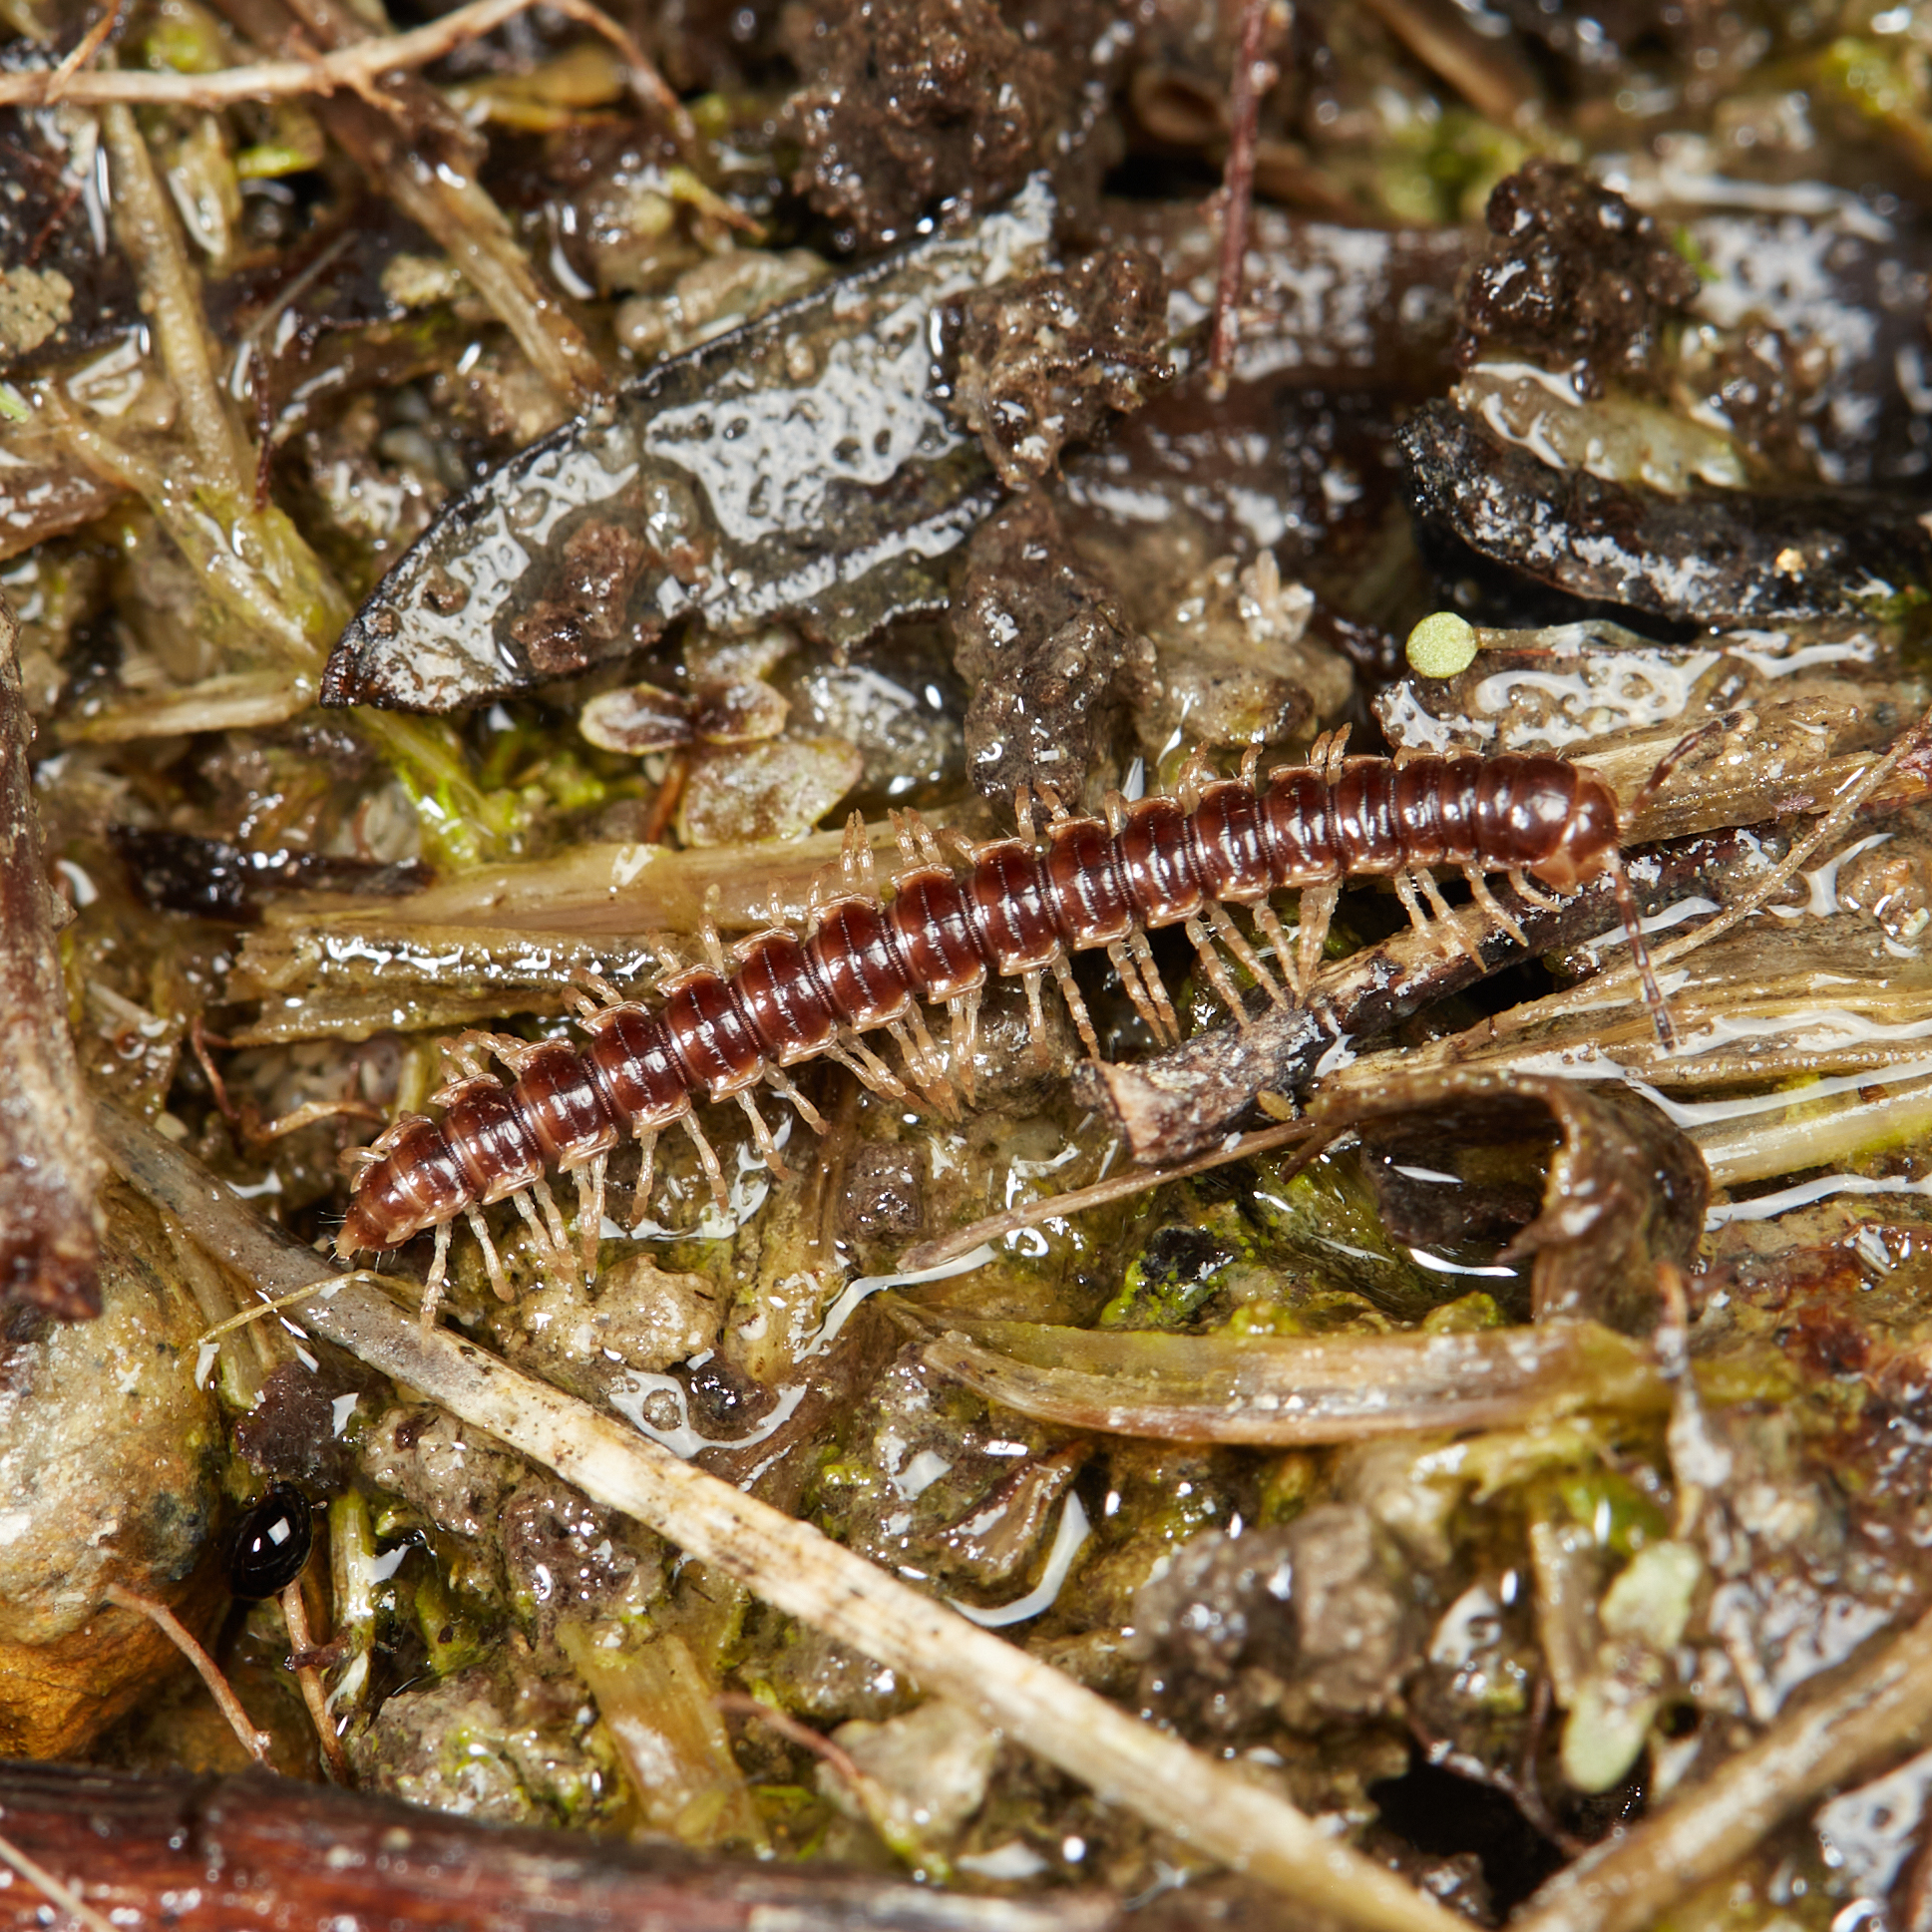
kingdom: Animalia
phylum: Arthropoda
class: Diplopoda
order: Polydesmida
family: Paradoxosomatidae
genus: Oxidus
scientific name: Oxidus gracilis
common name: Greenhouse millipede
